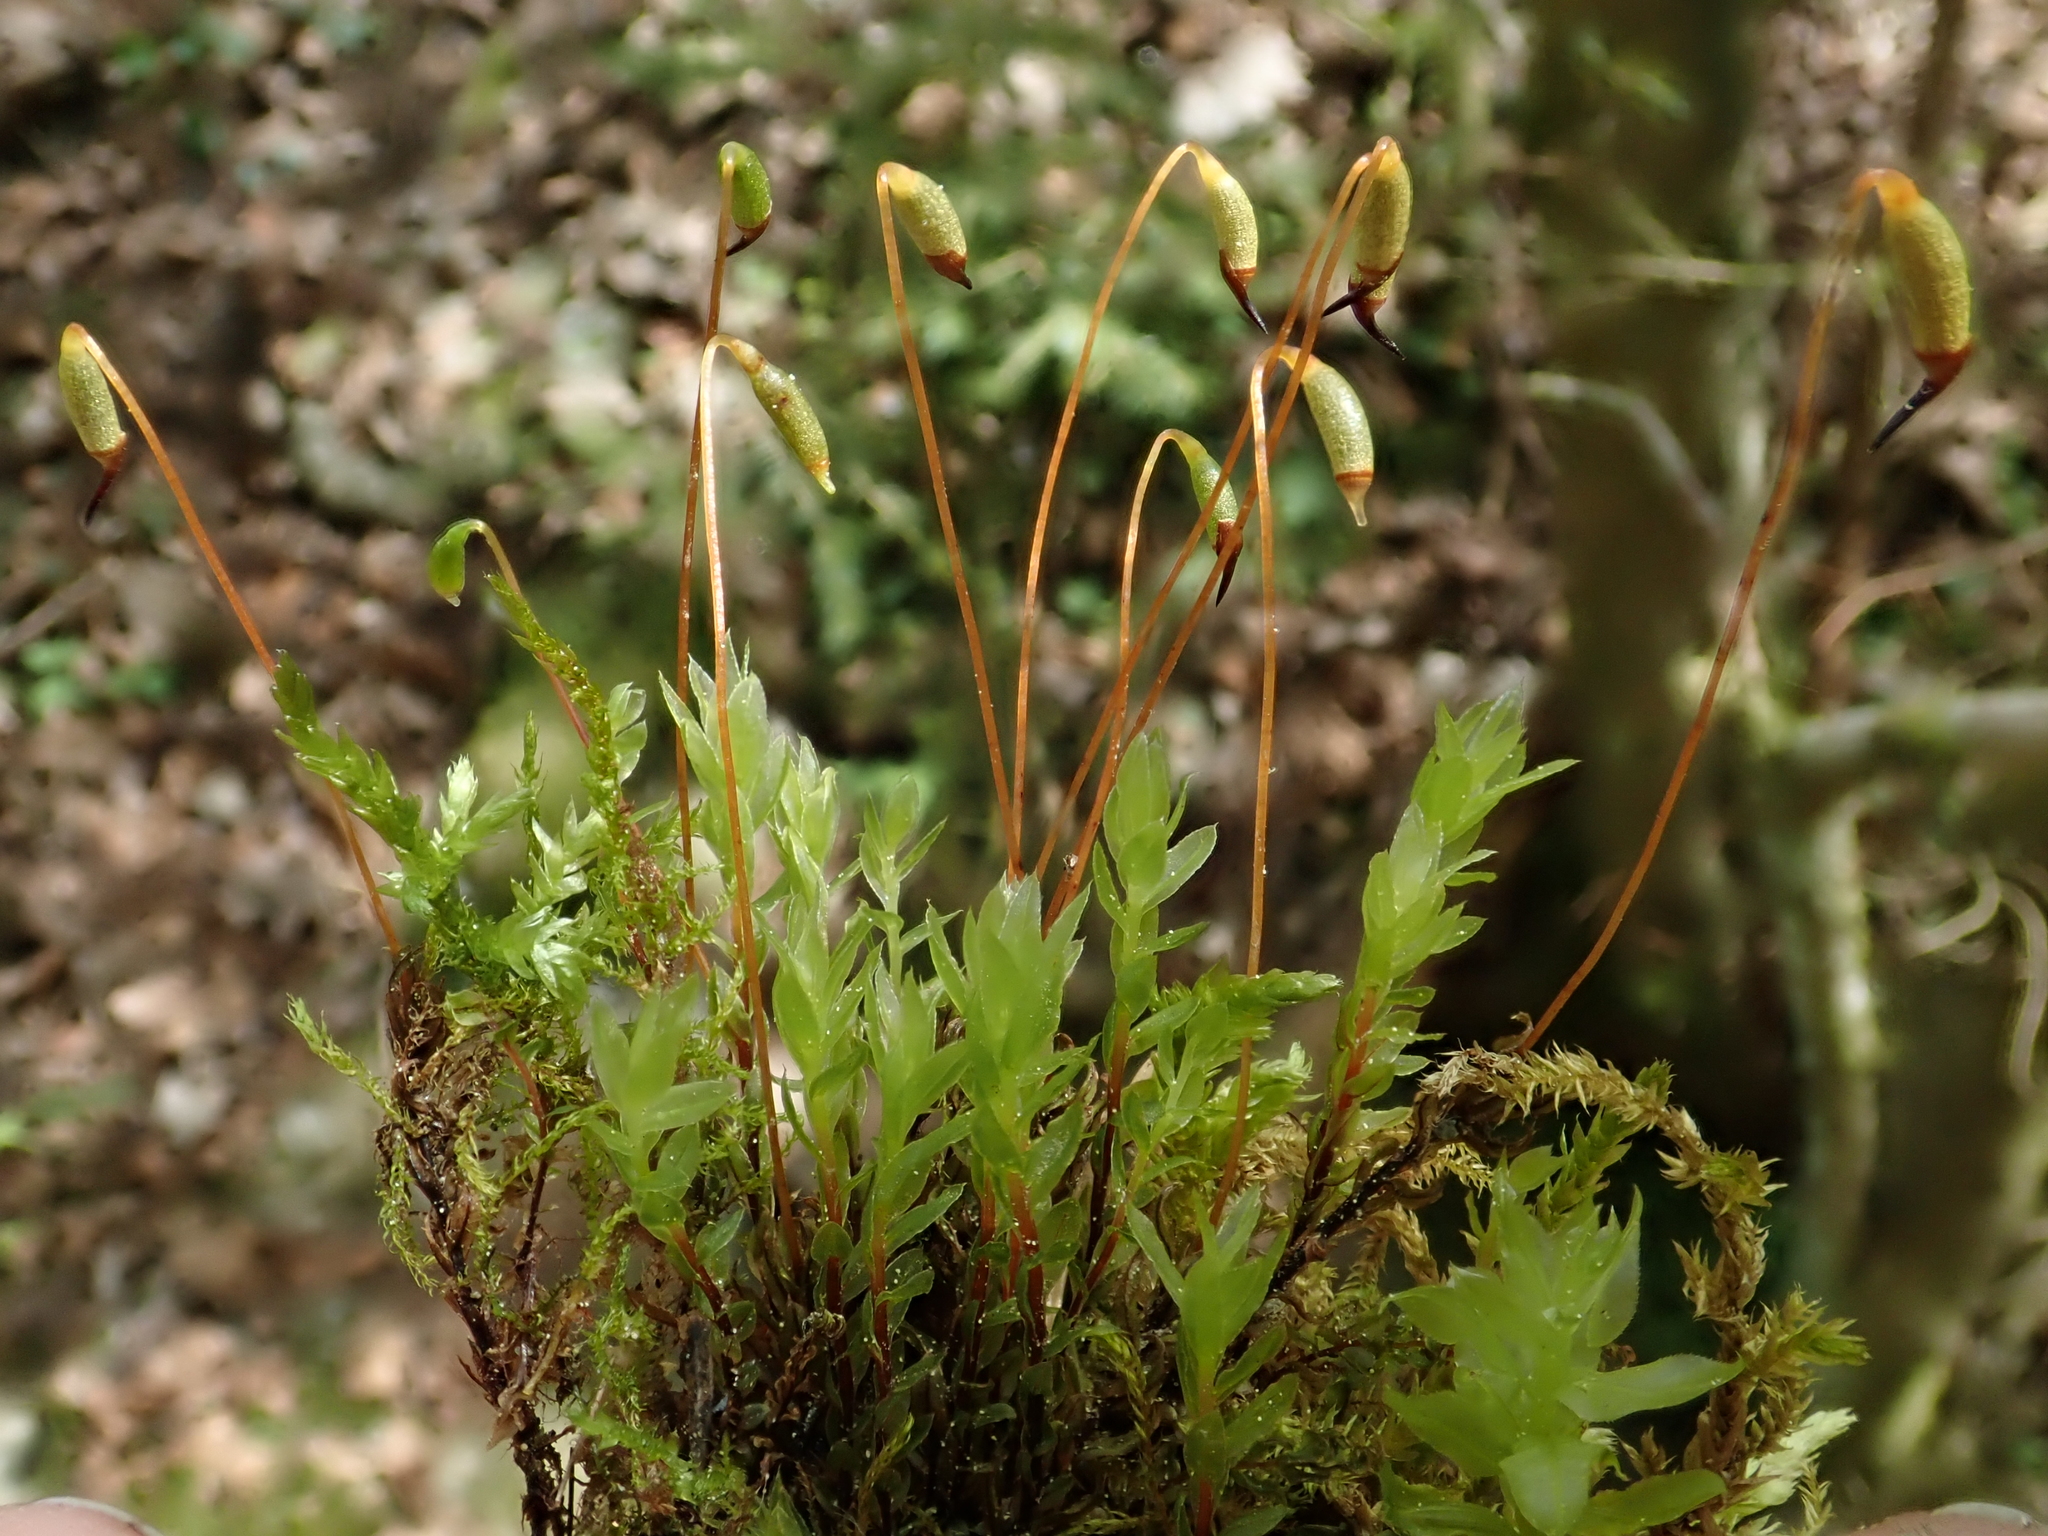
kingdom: Plantae
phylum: Bryophyta
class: Bryopsida
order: Bryales
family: Mniaceae
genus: Mnium
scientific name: Mnium marginatum
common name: Bordered leafy moss
